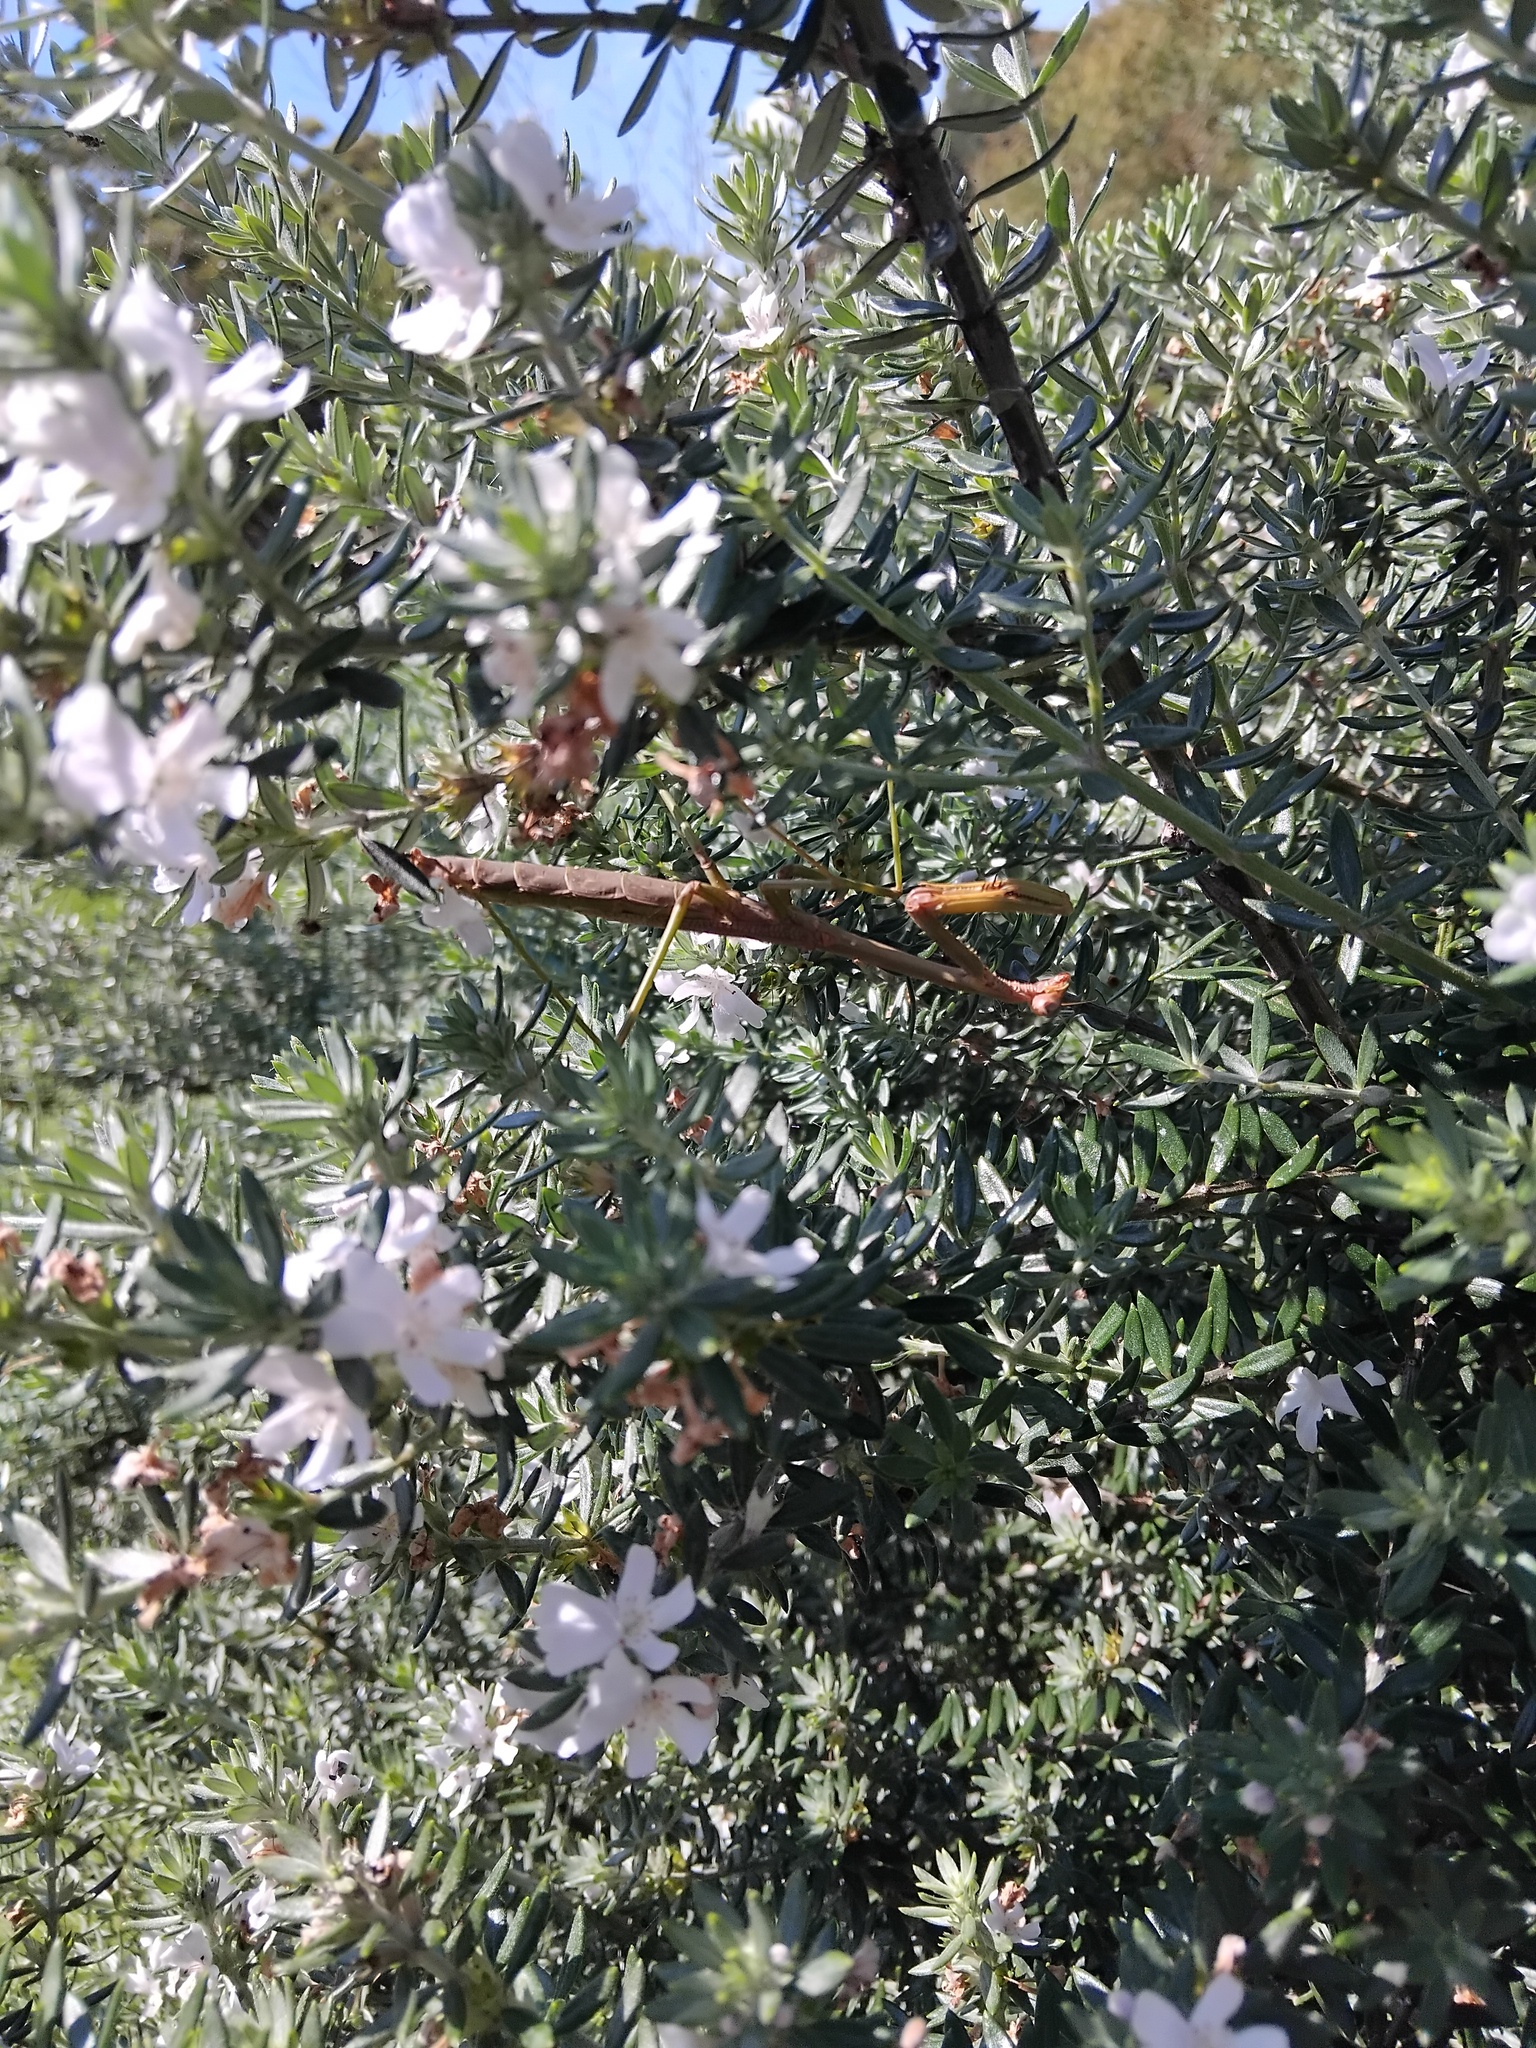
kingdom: Animalia
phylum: Arthropoda
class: Insecta
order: Mantodea
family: Mantidae
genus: Archimantis
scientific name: Archimantis latistyla
